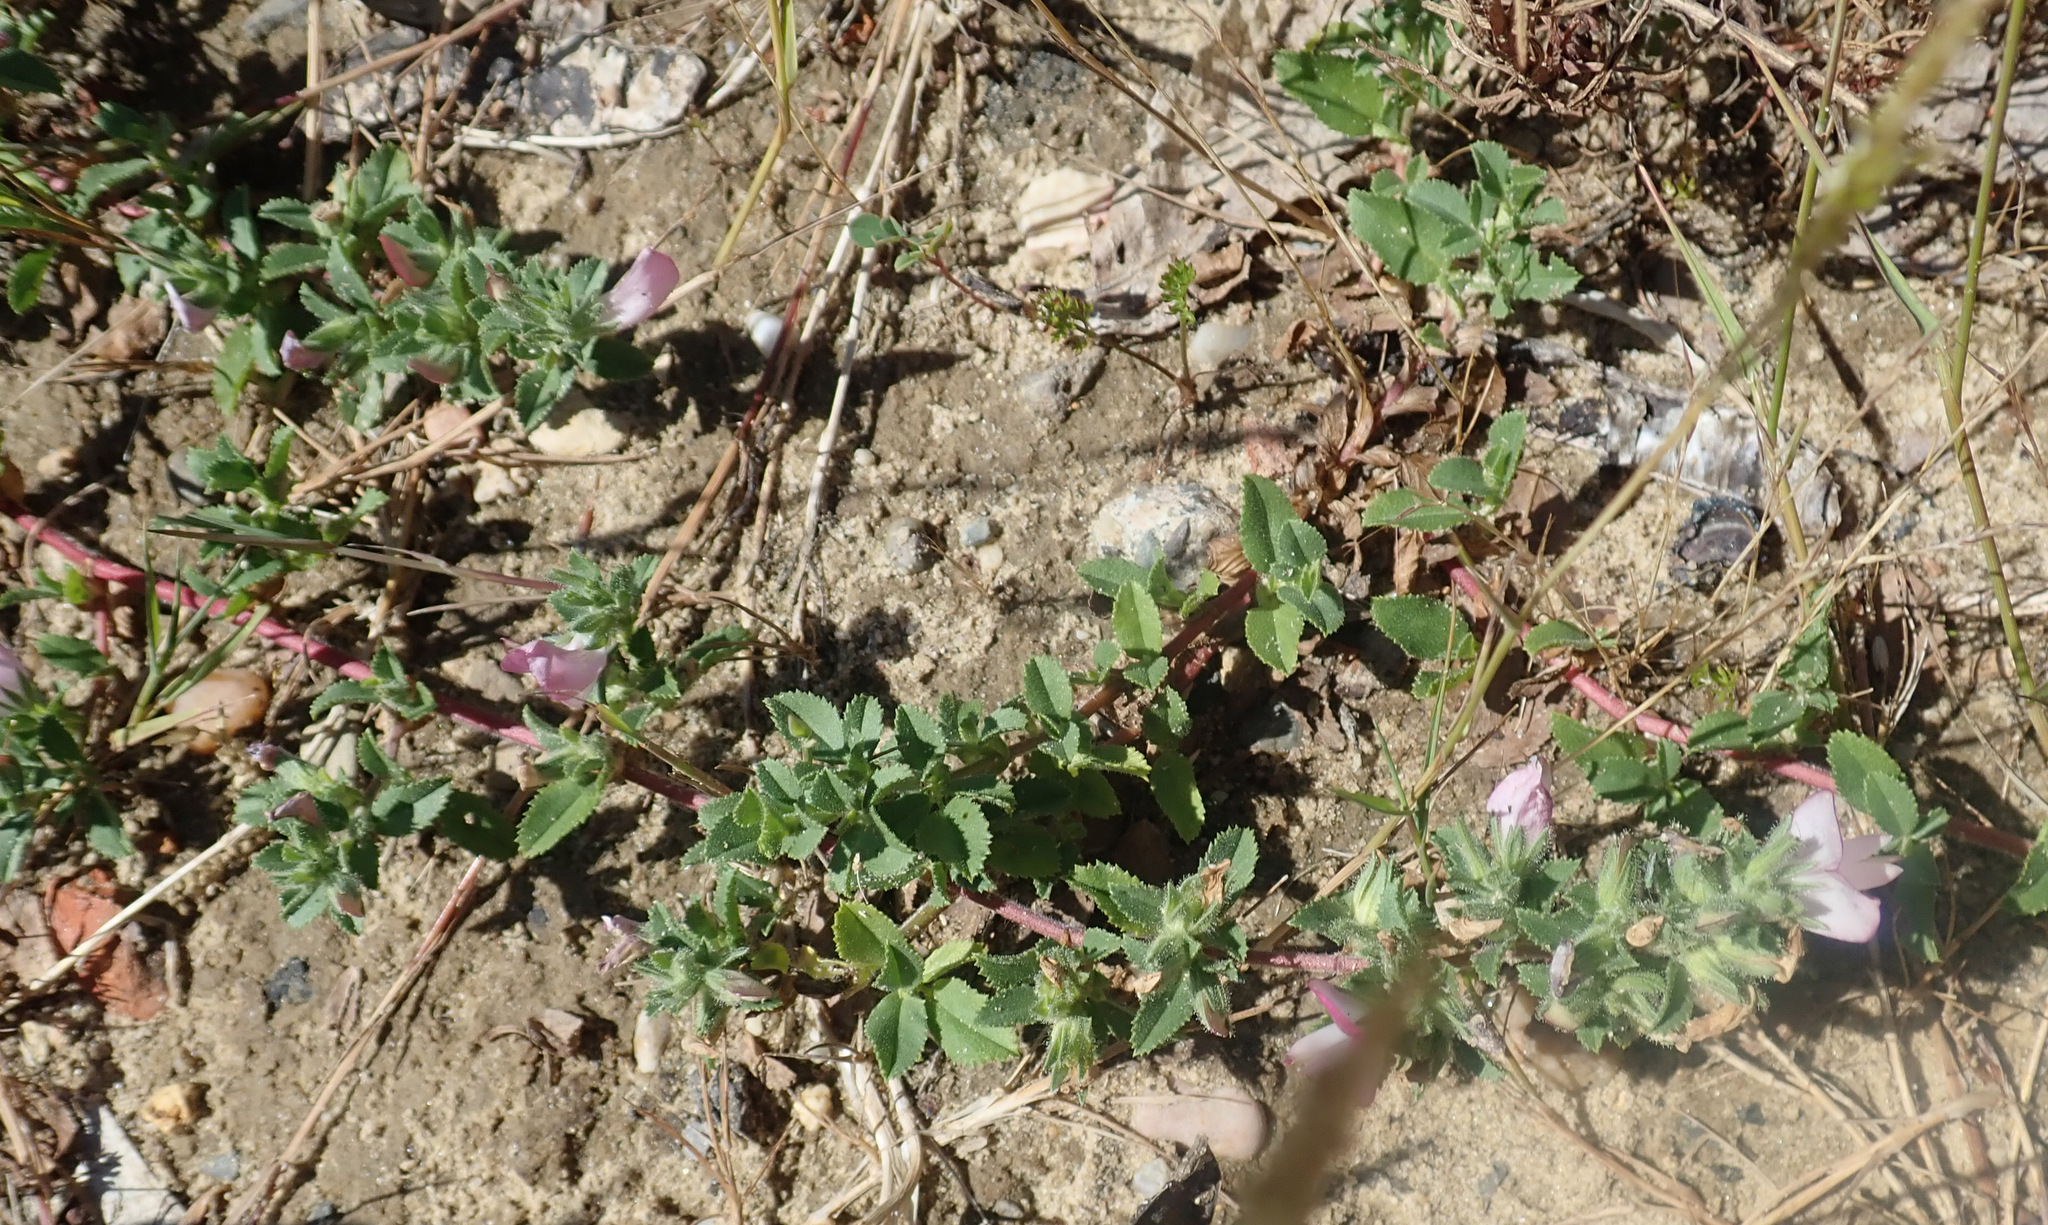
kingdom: Plantae
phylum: Tracheophyta
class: Magnoliopsida
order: Fabales
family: Fabaceae
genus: Ononis
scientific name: Ononis spinosa
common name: Spiny restharrow
